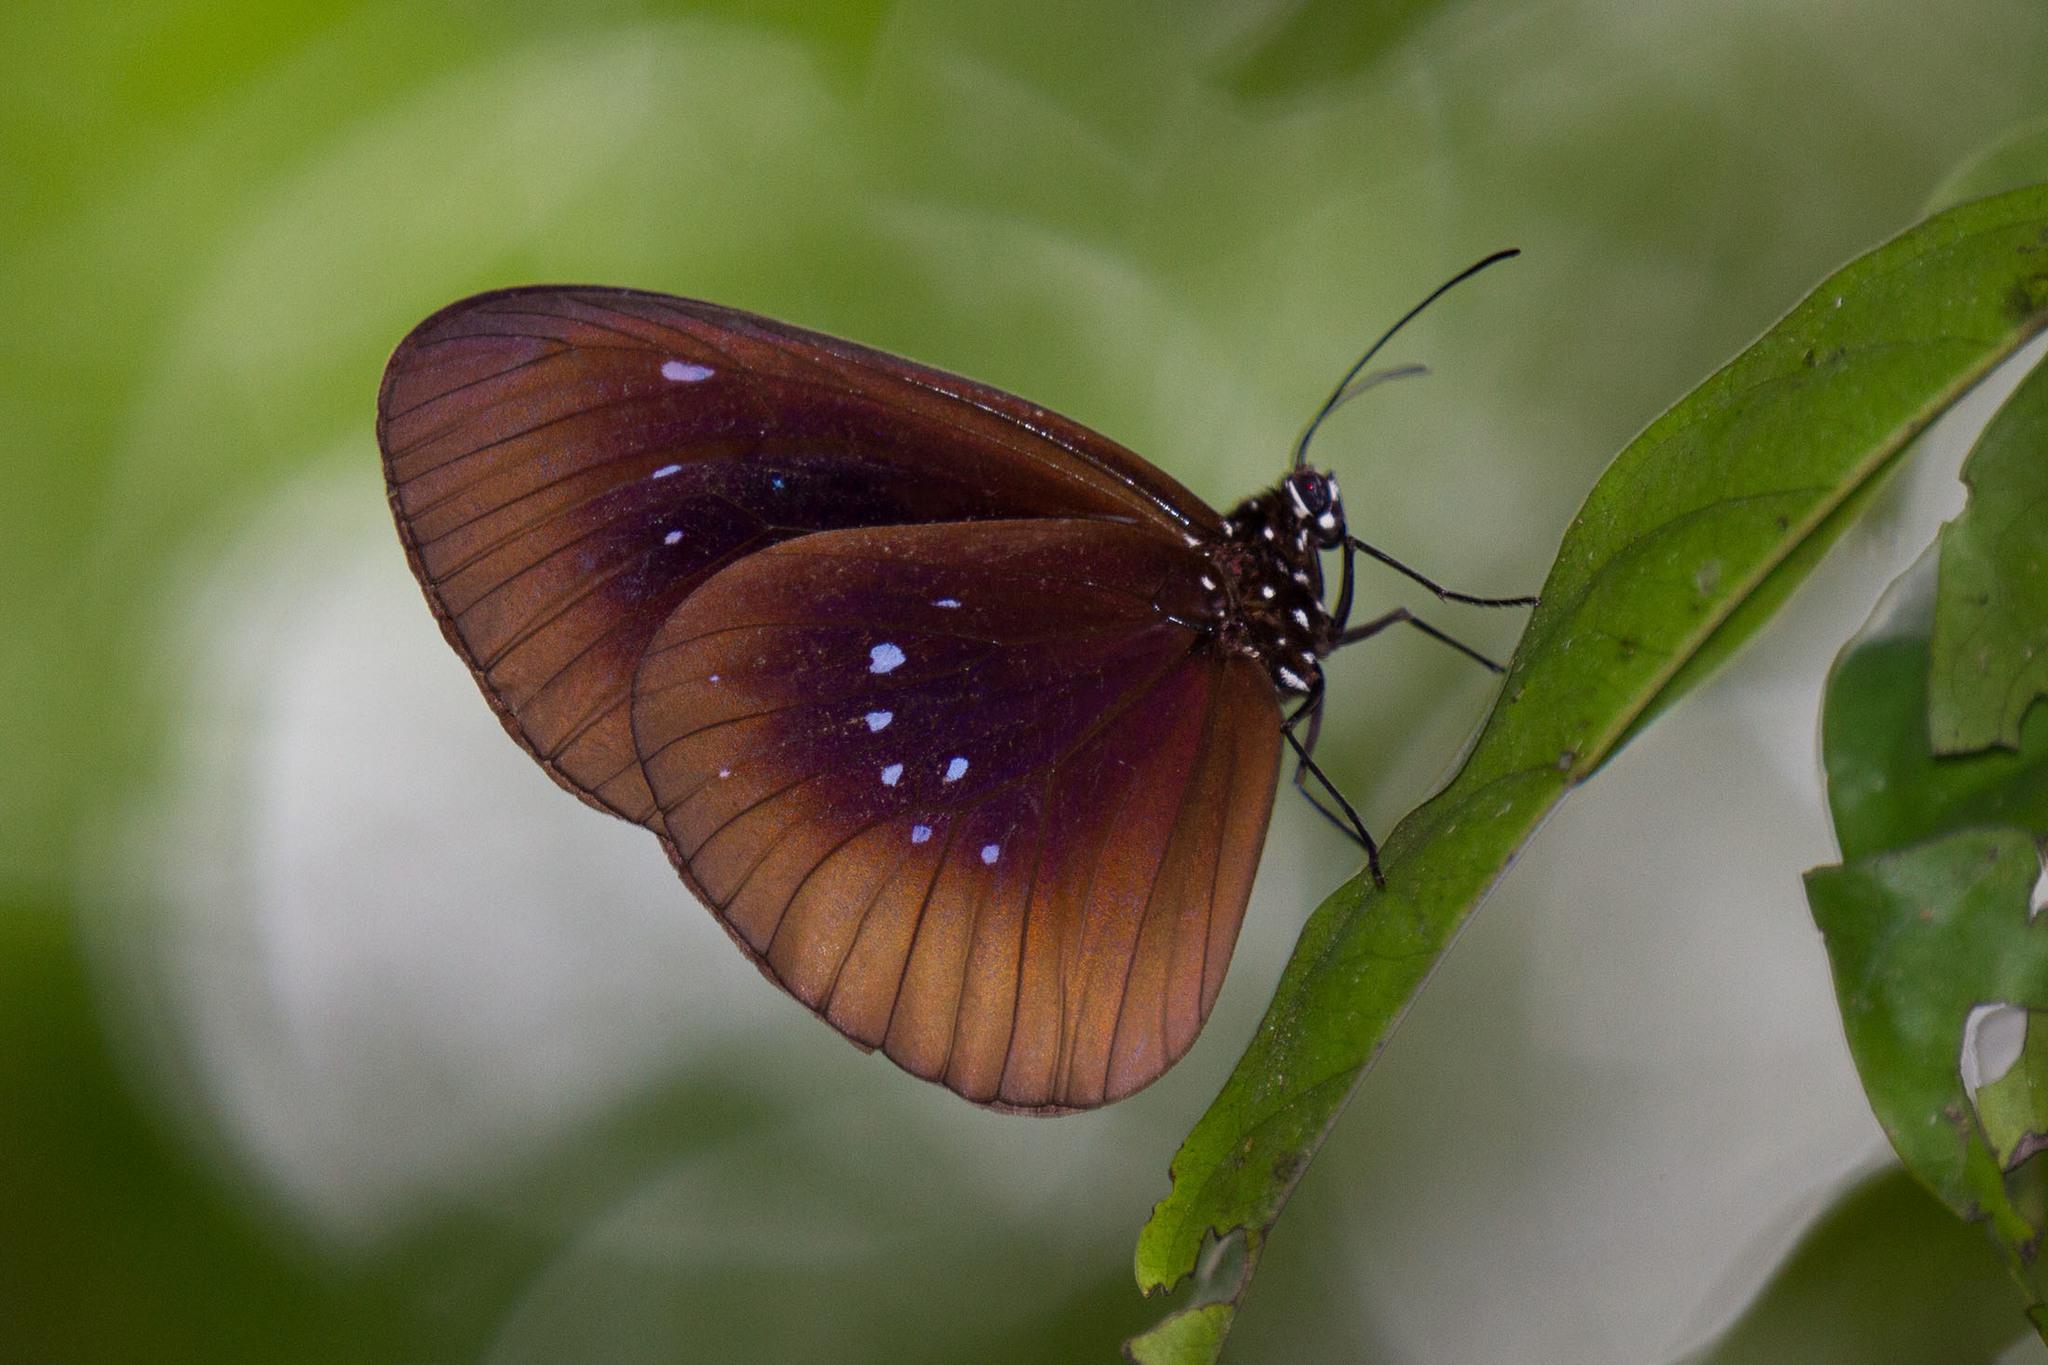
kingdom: Animalia
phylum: Arthropoda
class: Insecta
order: Lepidoptera
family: Nymphalidae
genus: Euploea
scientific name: Euploea netscheri
